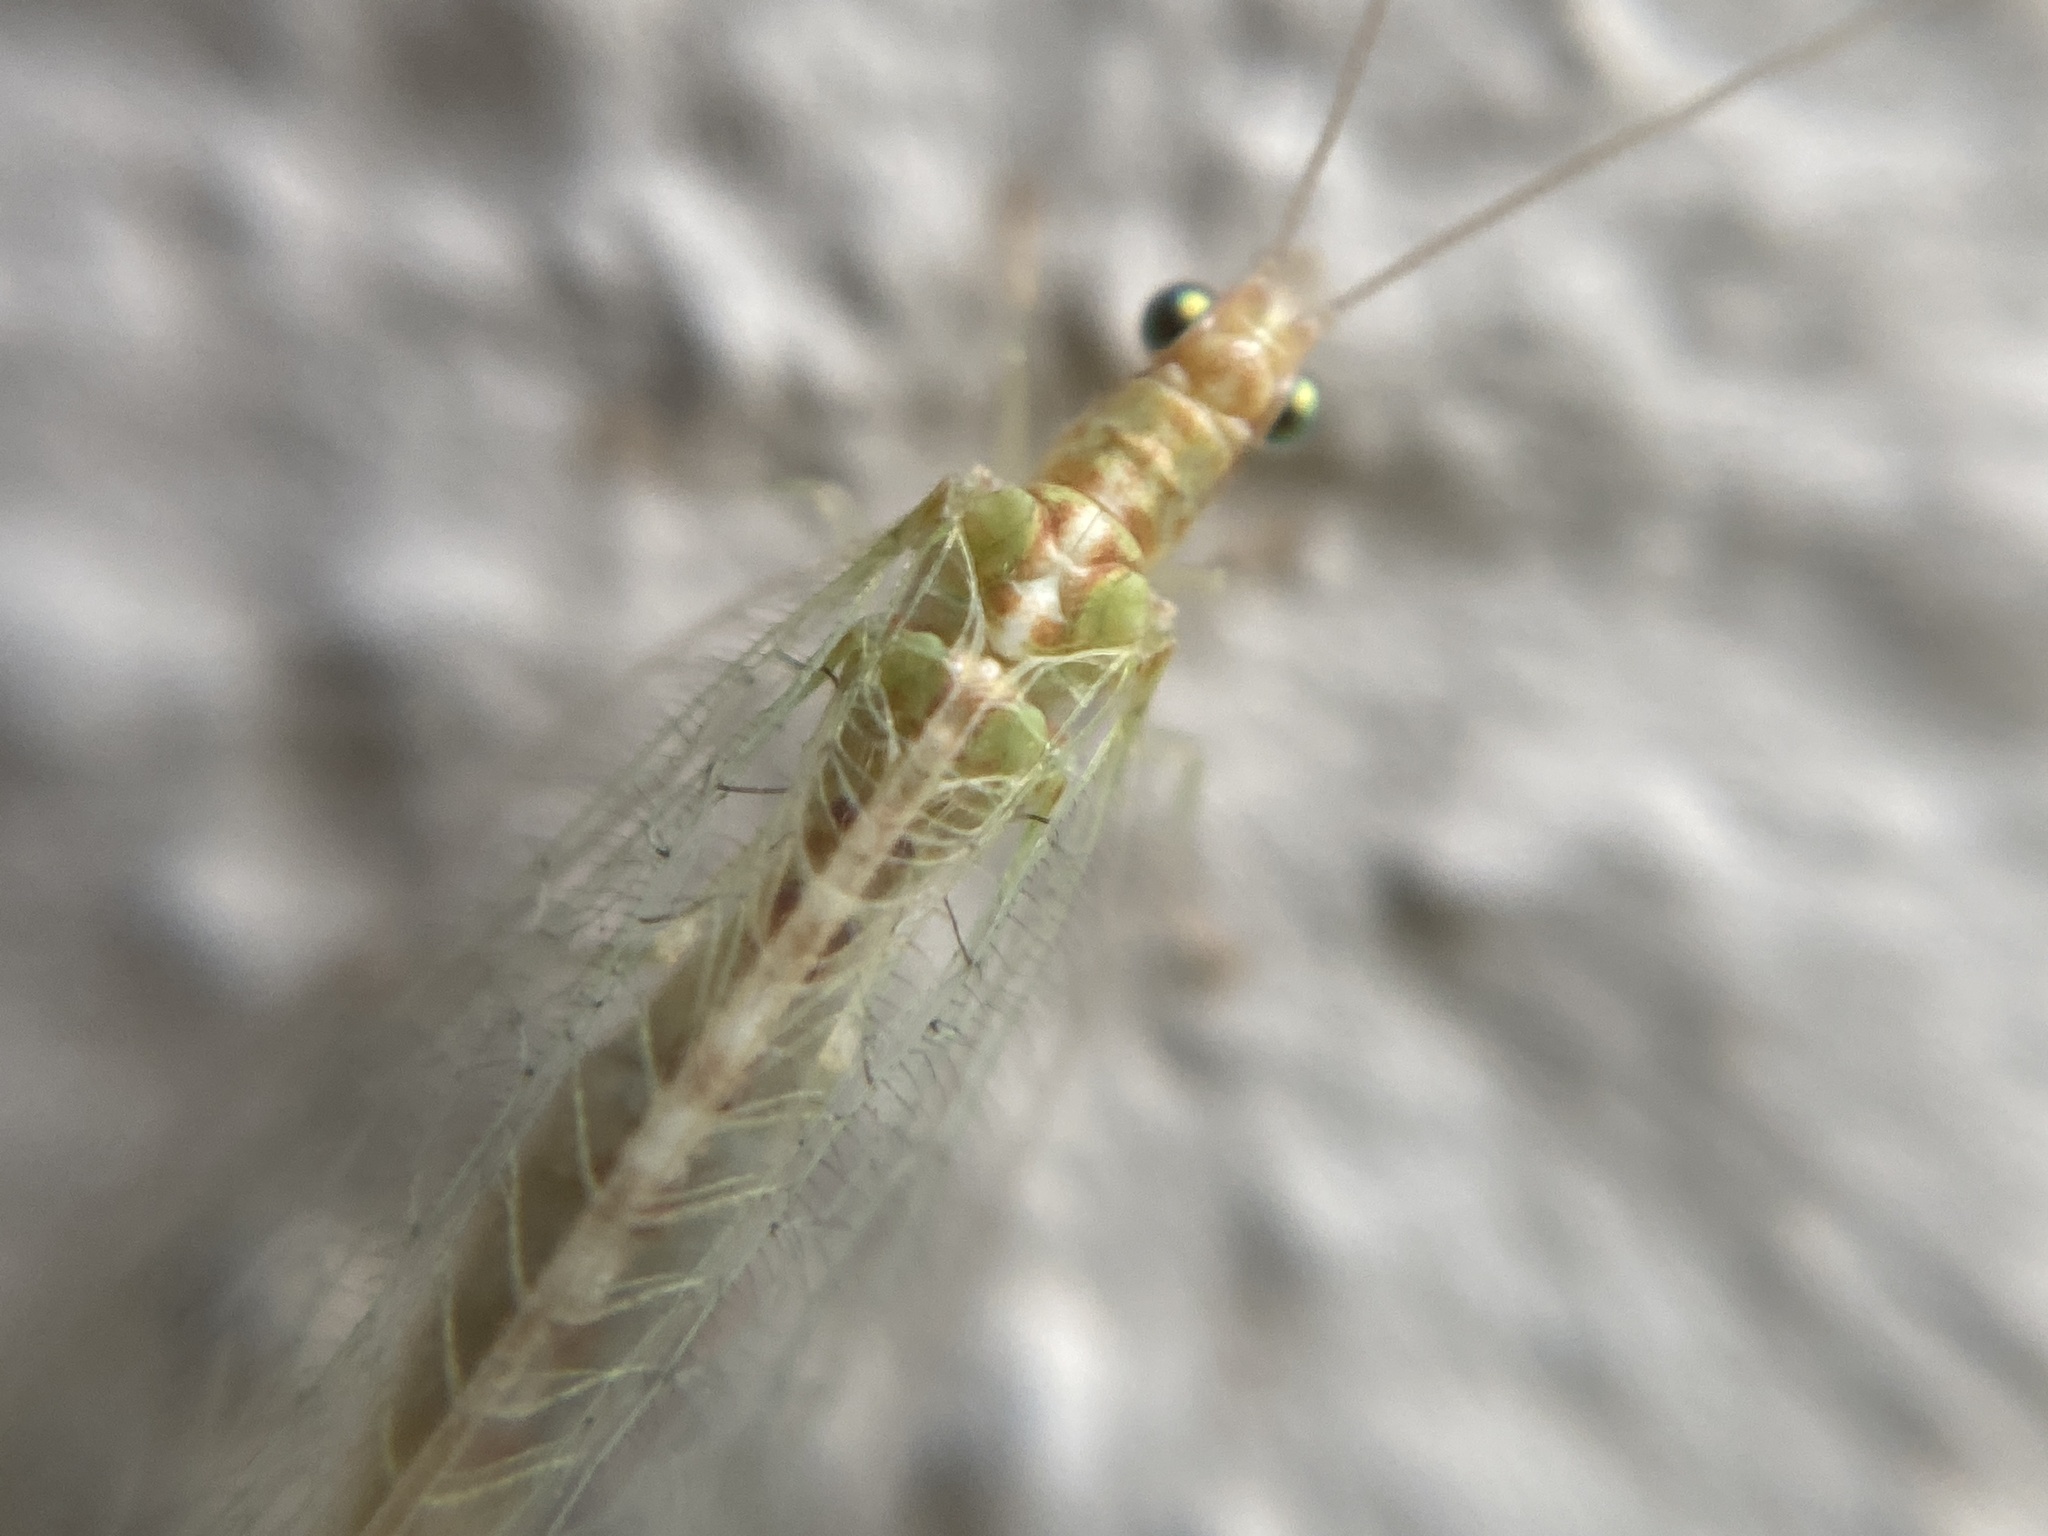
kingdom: Animalia
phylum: Arthropoda
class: Insecta
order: Neuroptera
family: Chrysopidae
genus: Chrysoperla
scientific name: Chrysoperla
